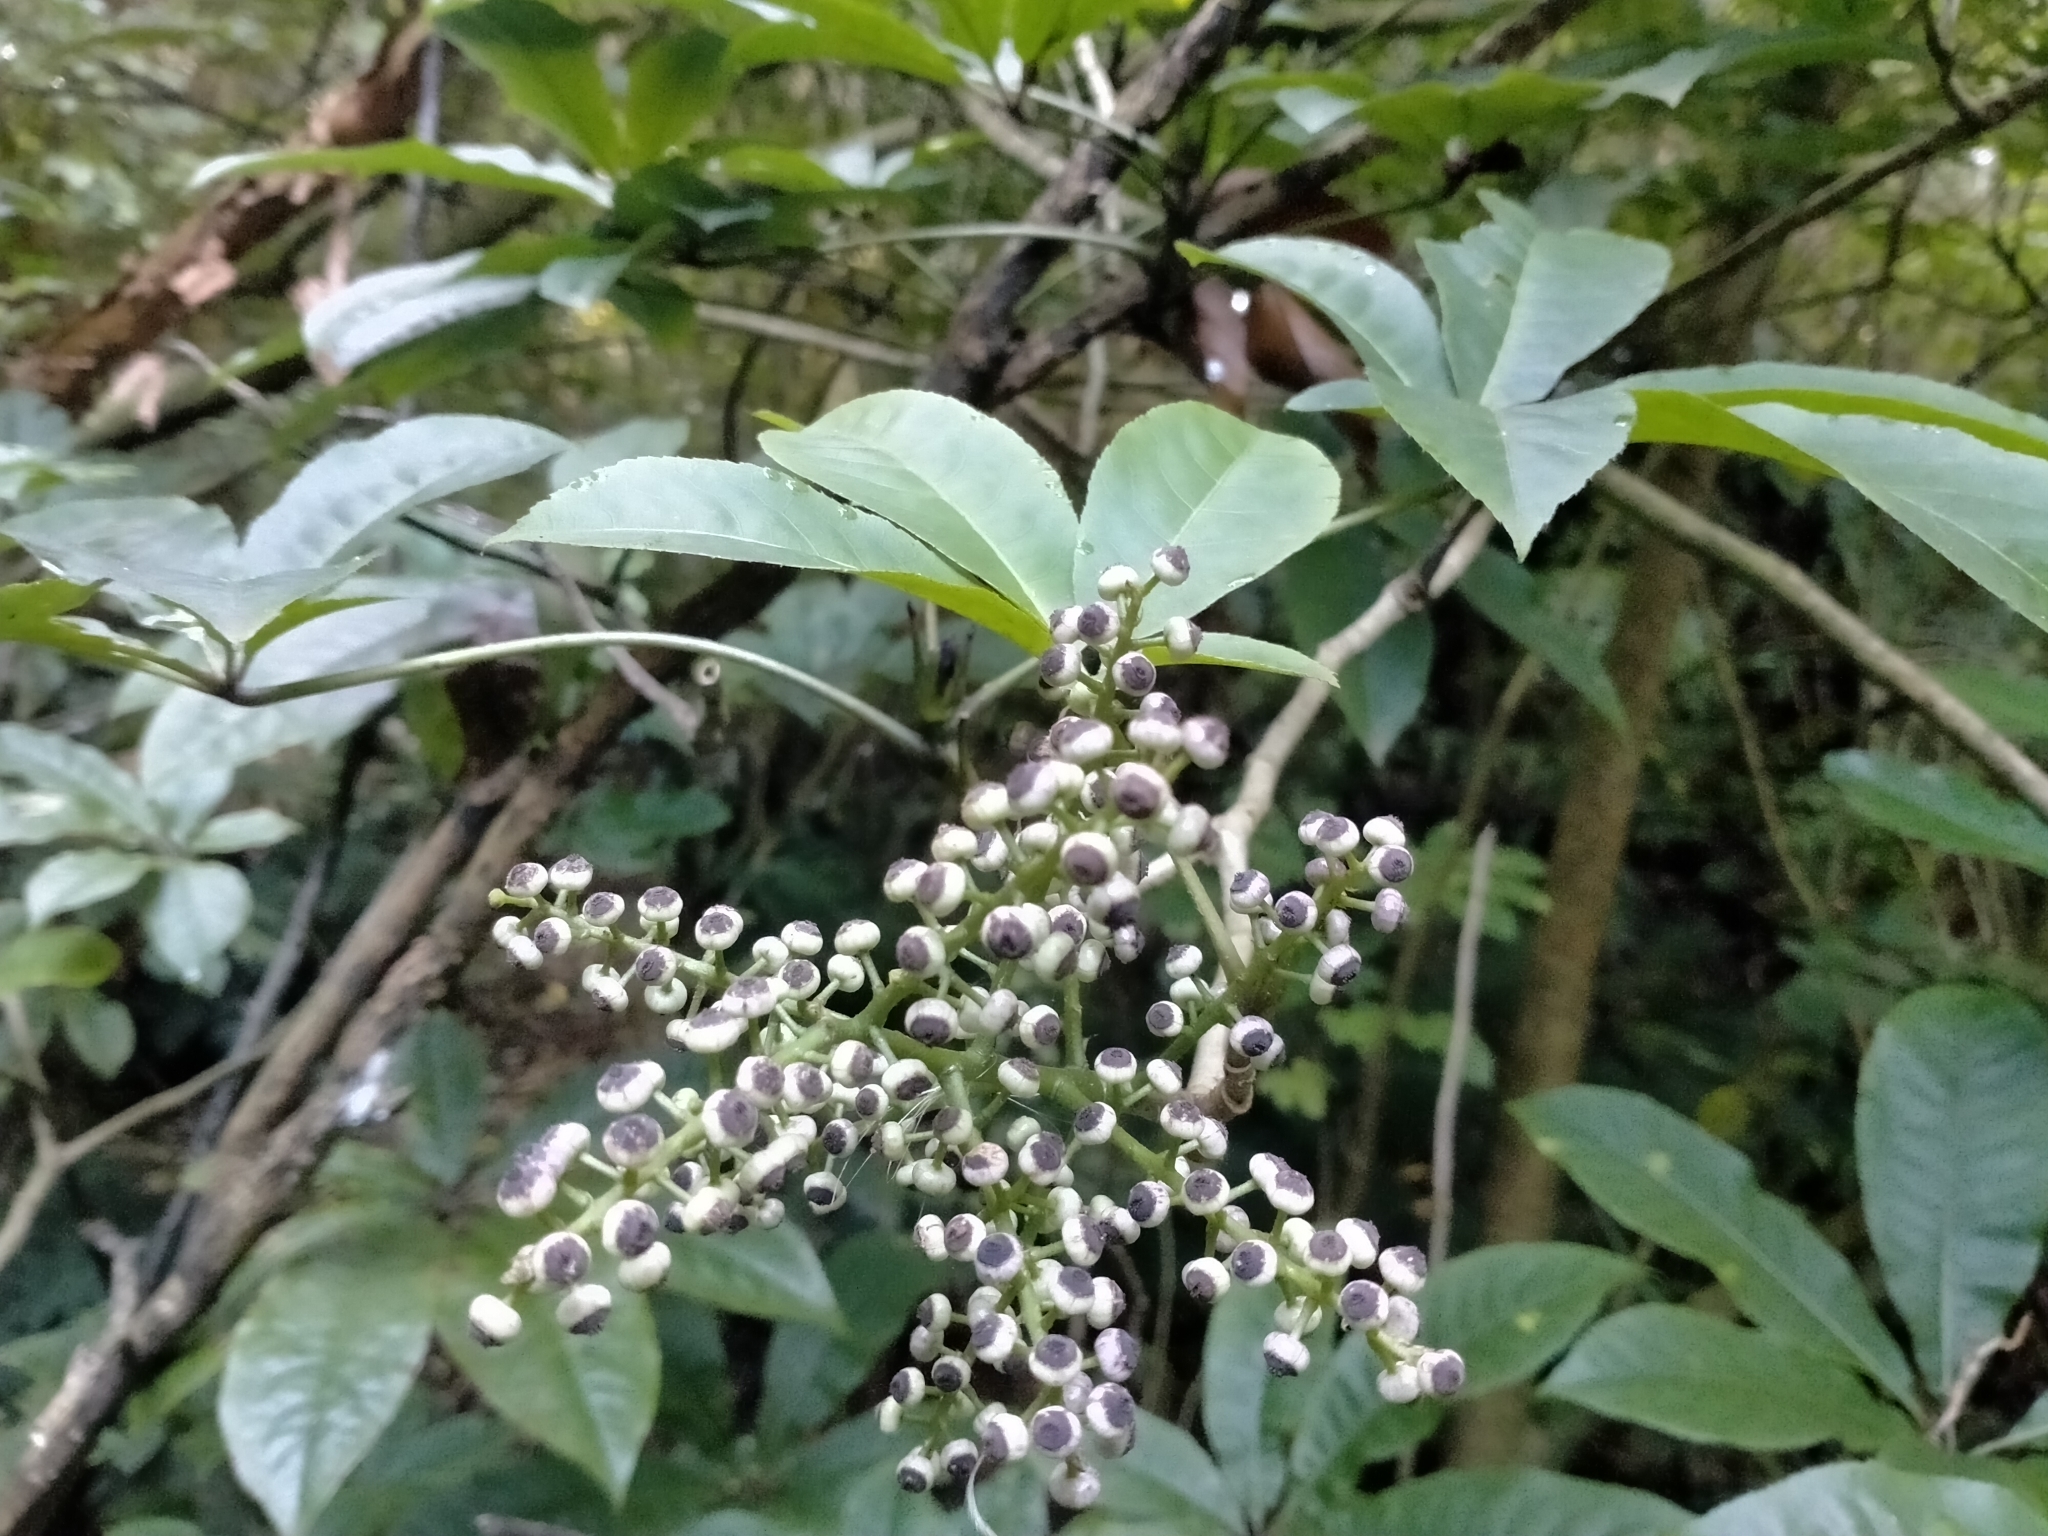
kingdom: Plantae
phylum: Tracheophyta
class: Magnoliopsida
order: Apiales
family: Araliaceae
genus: Schefflera
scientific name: Schefflera digitata
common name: Pate
